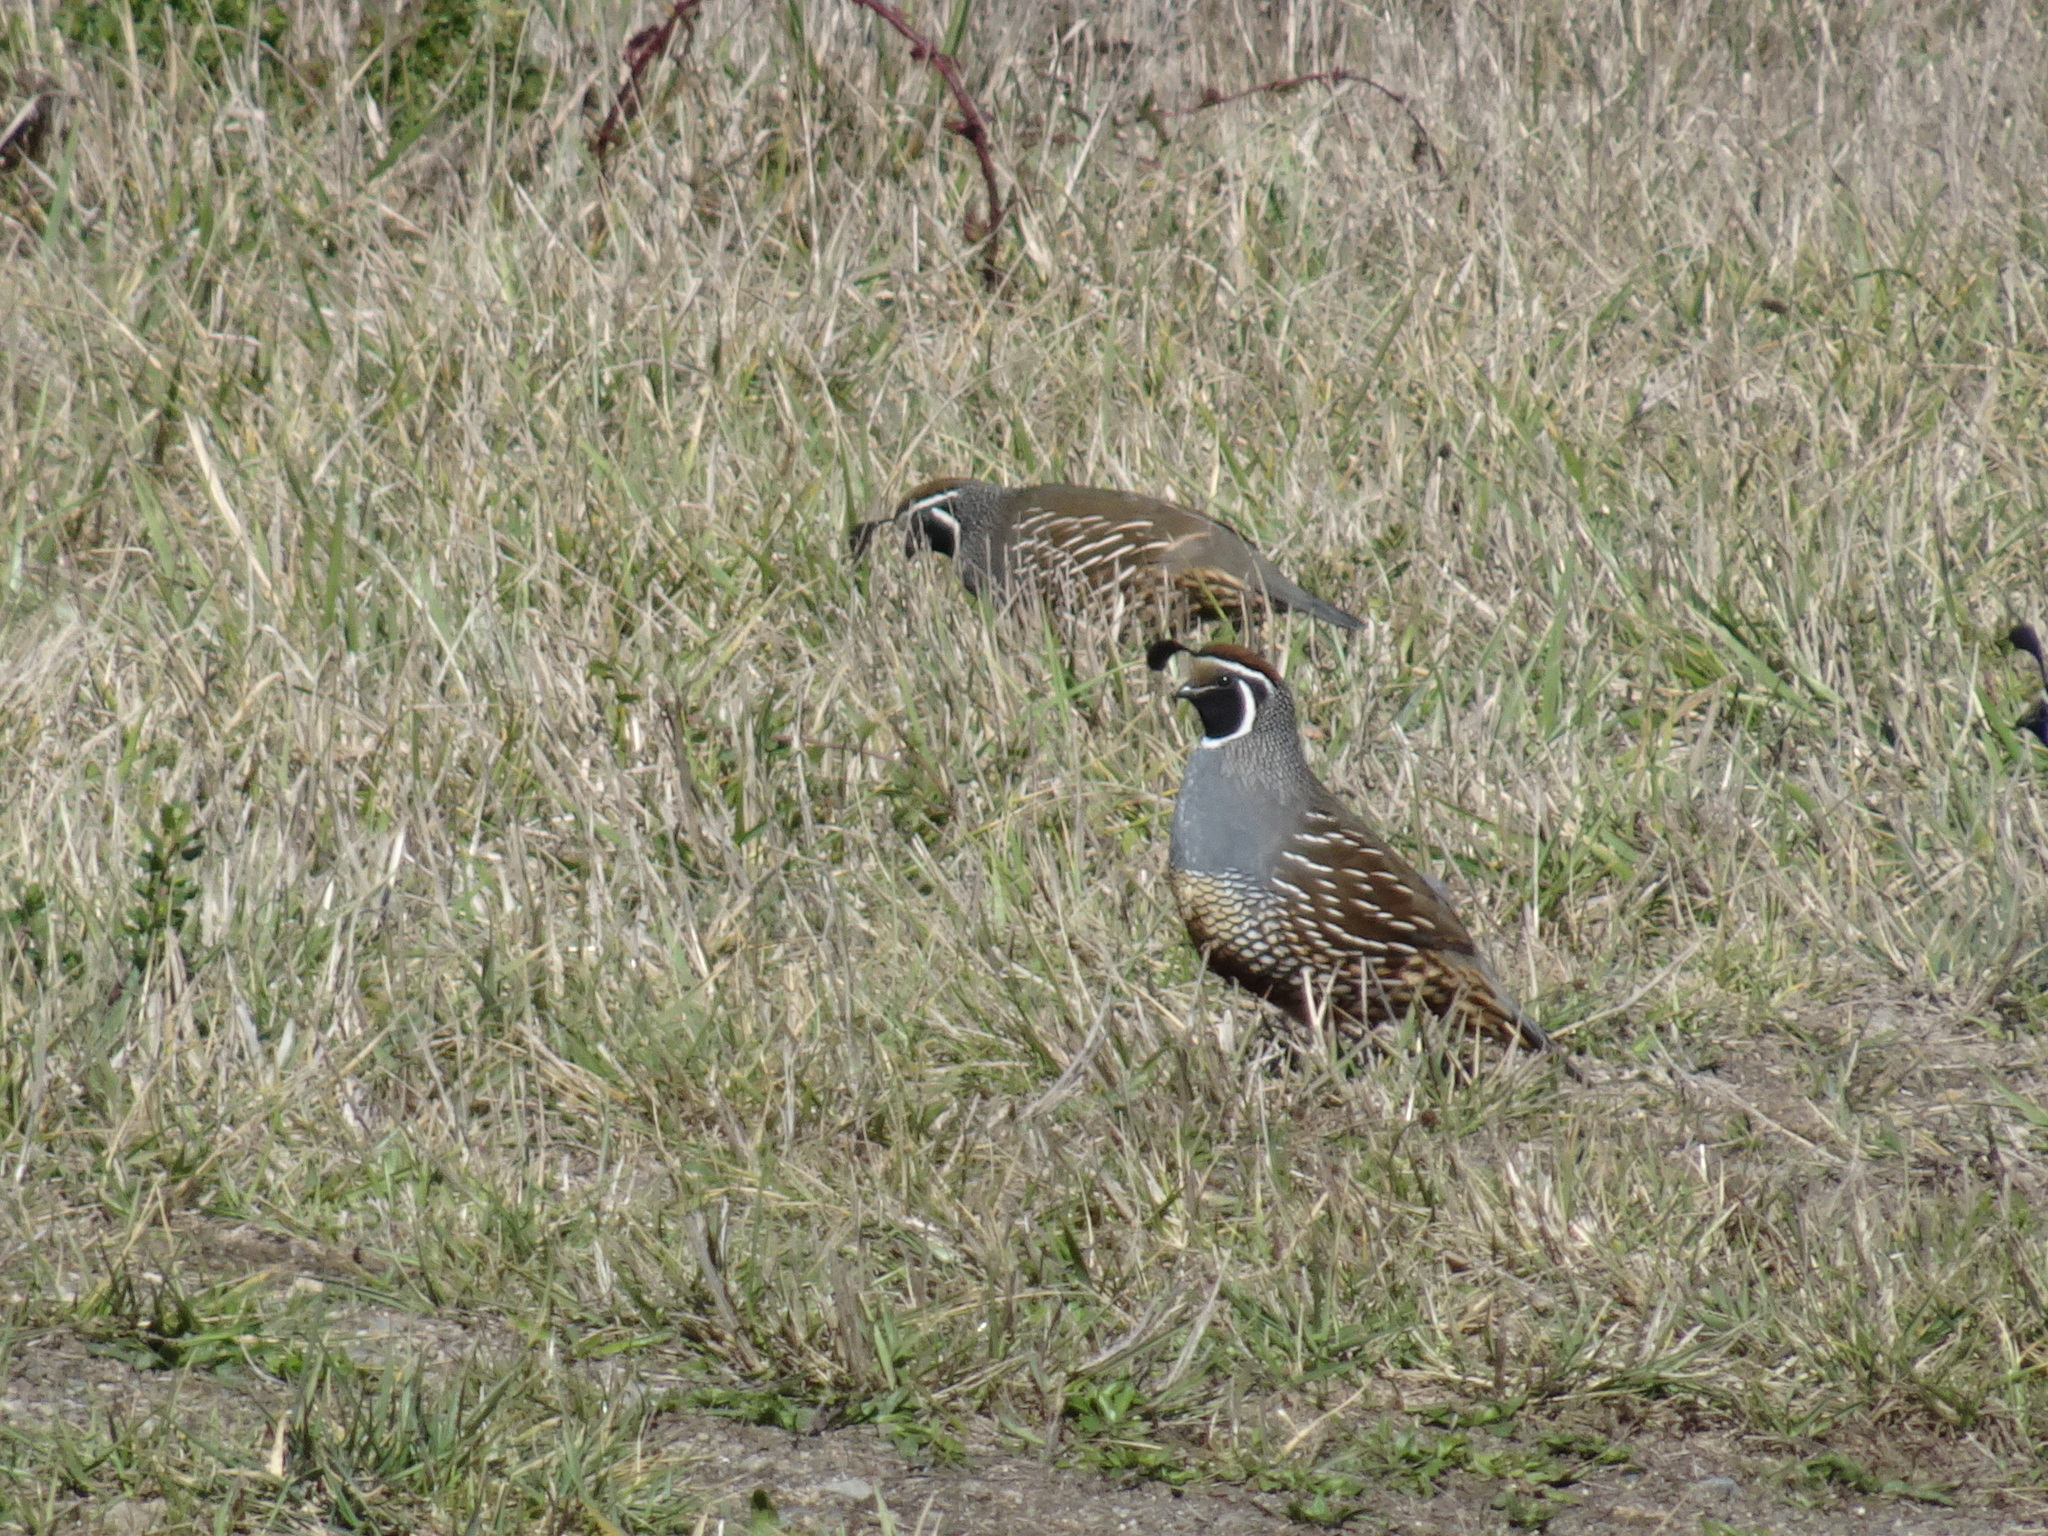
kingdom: Animalia
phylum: Chordata
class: Aves
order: Galliformes
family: Odontophoridae
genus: Callipepla
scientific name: Callipepla californica
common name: California quail
